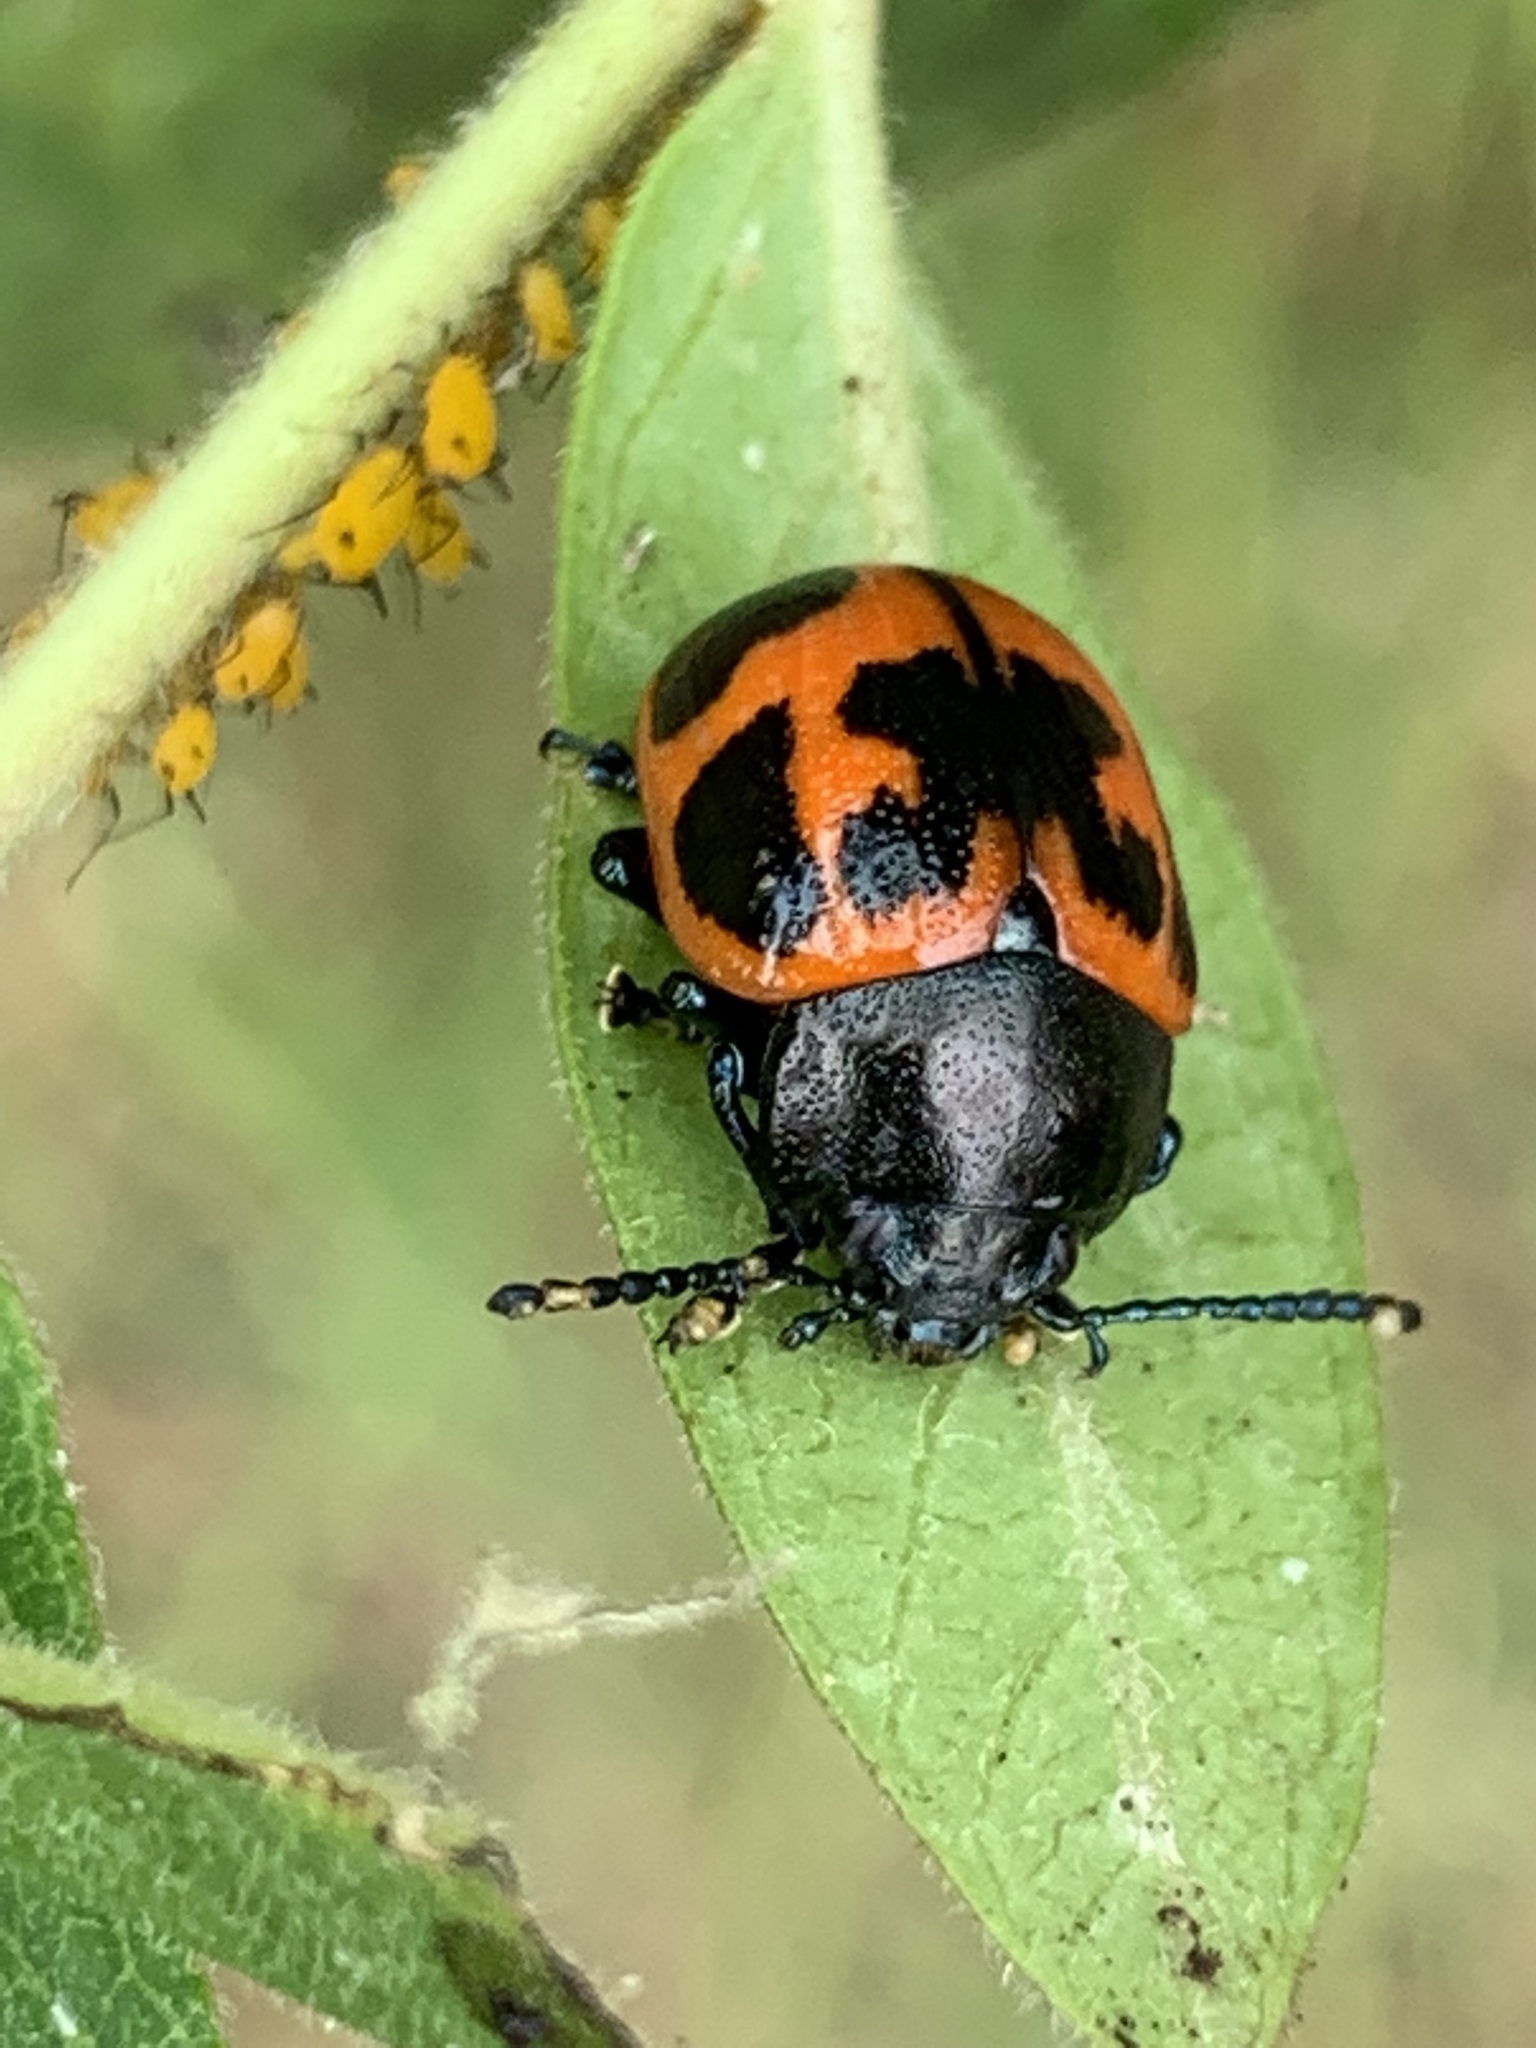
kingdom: Animalia
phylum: Arthropoda
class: Insecta
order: Coleoptera
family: Chrysomelidae
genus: Labidomera
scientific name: Labidomera clivicollis
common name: Swamp milkweed leaf beetle
